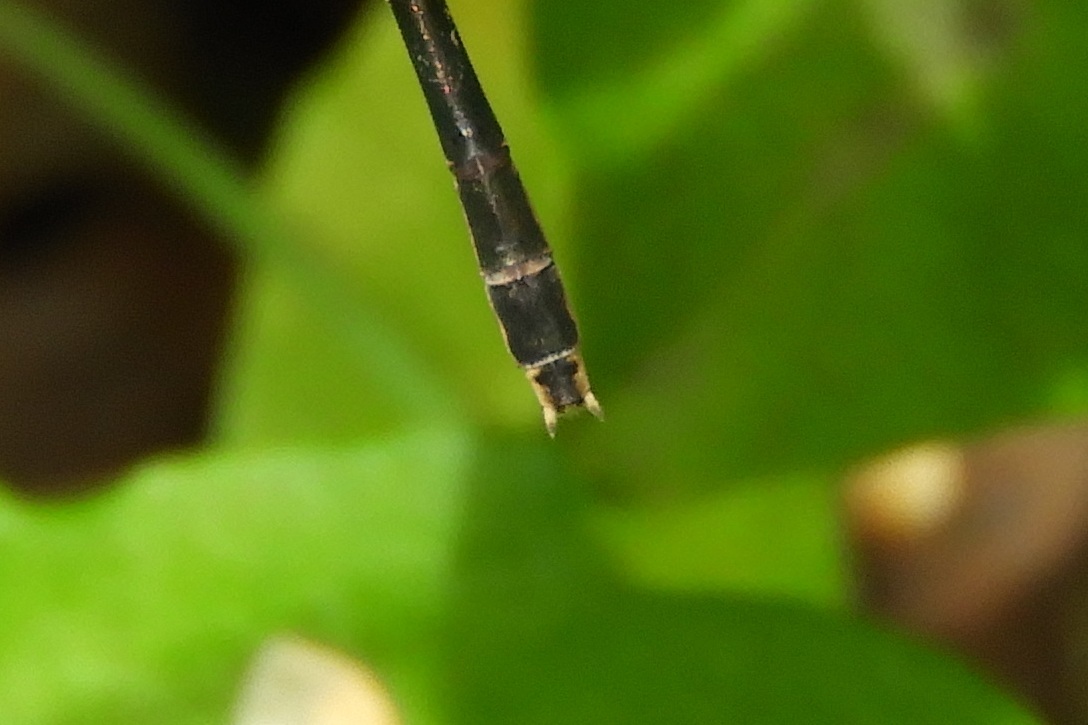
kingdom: Animalia
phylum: Arthropoda
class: Insecta
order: Odonata
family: Lestidae
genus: Lestes
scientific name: Lestes inaequalis
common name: Elegant spreadwing
